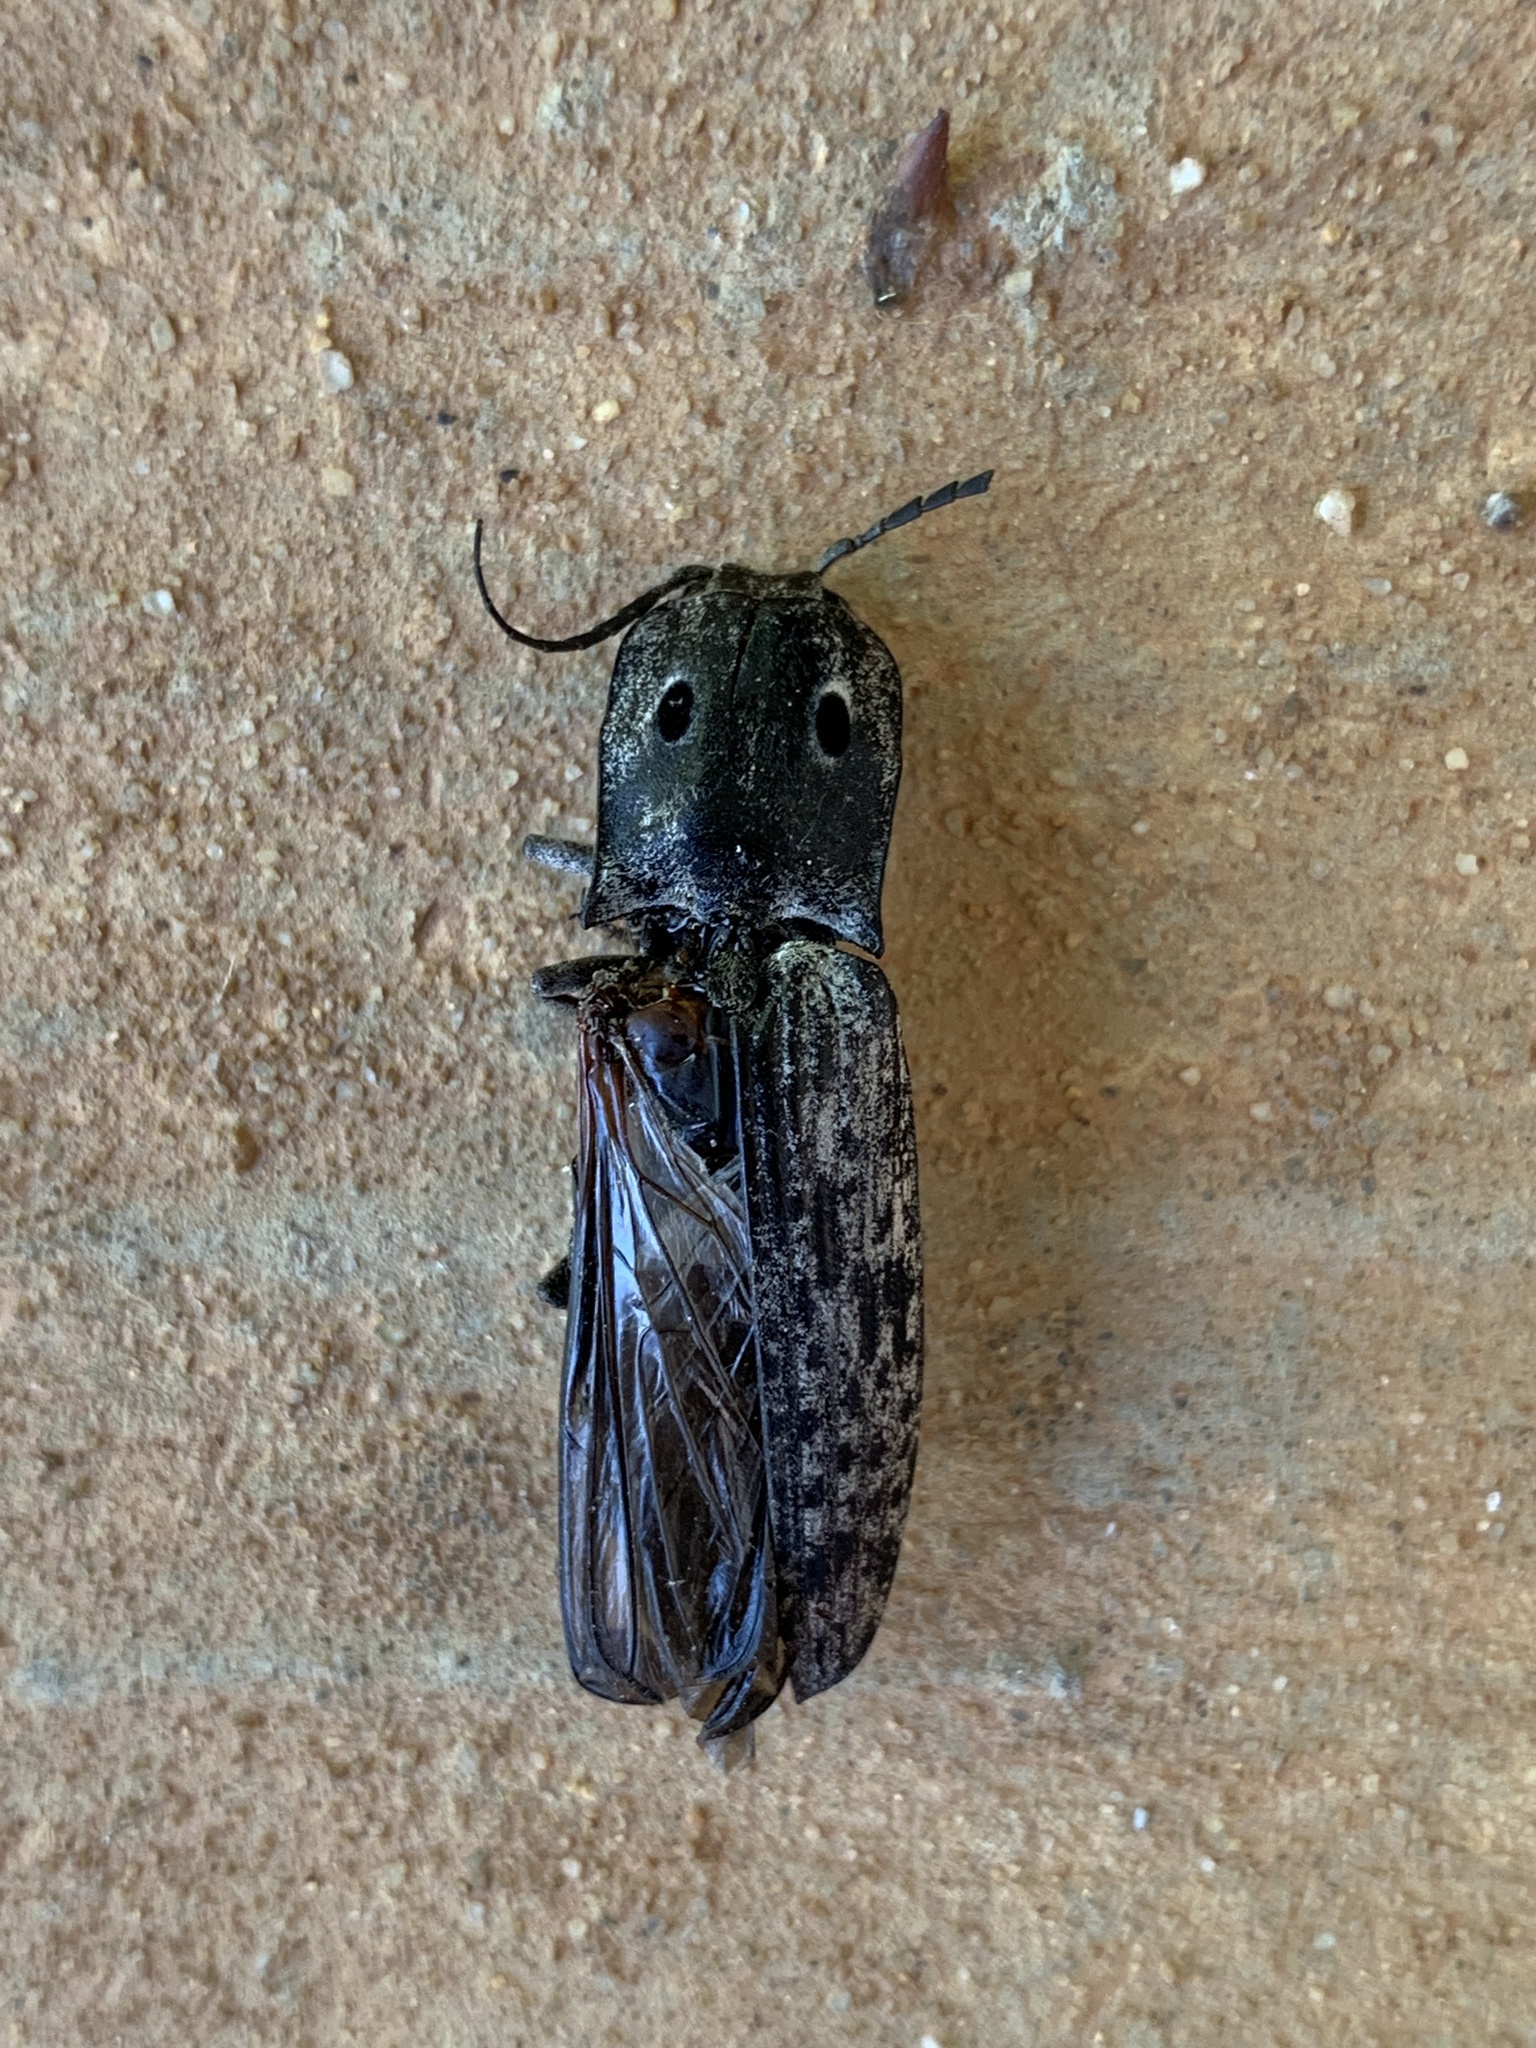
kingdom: Animalia
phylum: Arthropoda
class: Insecta
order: Coleoptera
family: Elateridae
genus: Alaus
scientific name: Alaus myops
